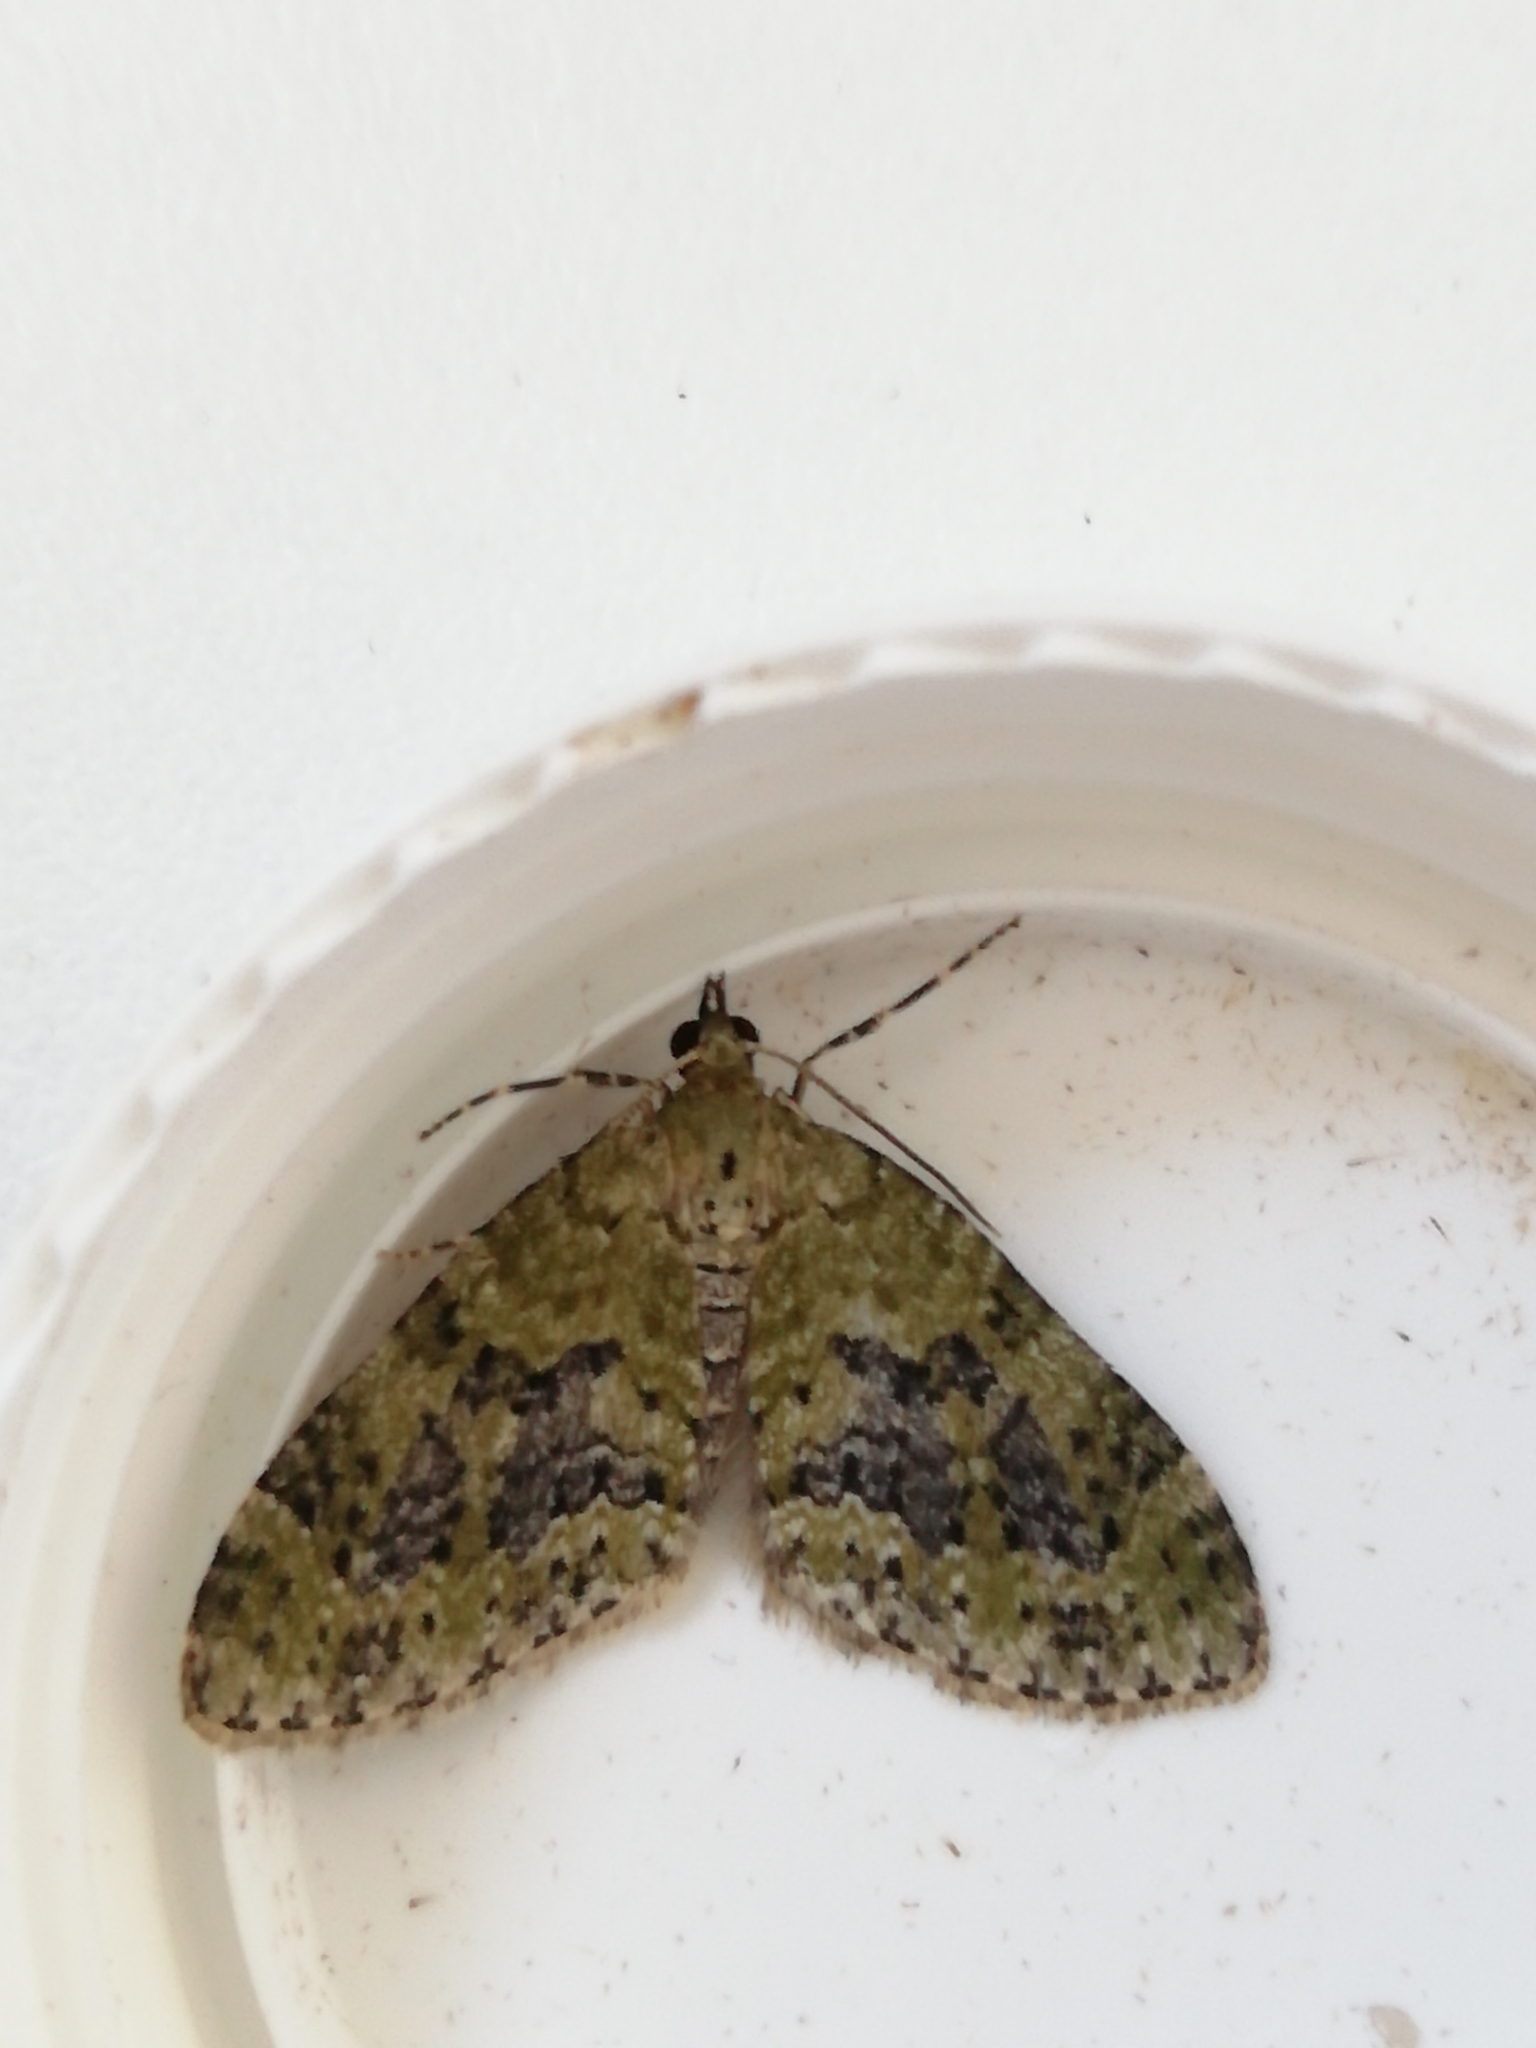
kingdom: Animalia
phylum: Arthropoda
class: Insecta
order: Lepidoptera
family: Geometridae
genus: Acasis
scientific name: Acasis viretata
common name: Yellow-barred brindle
